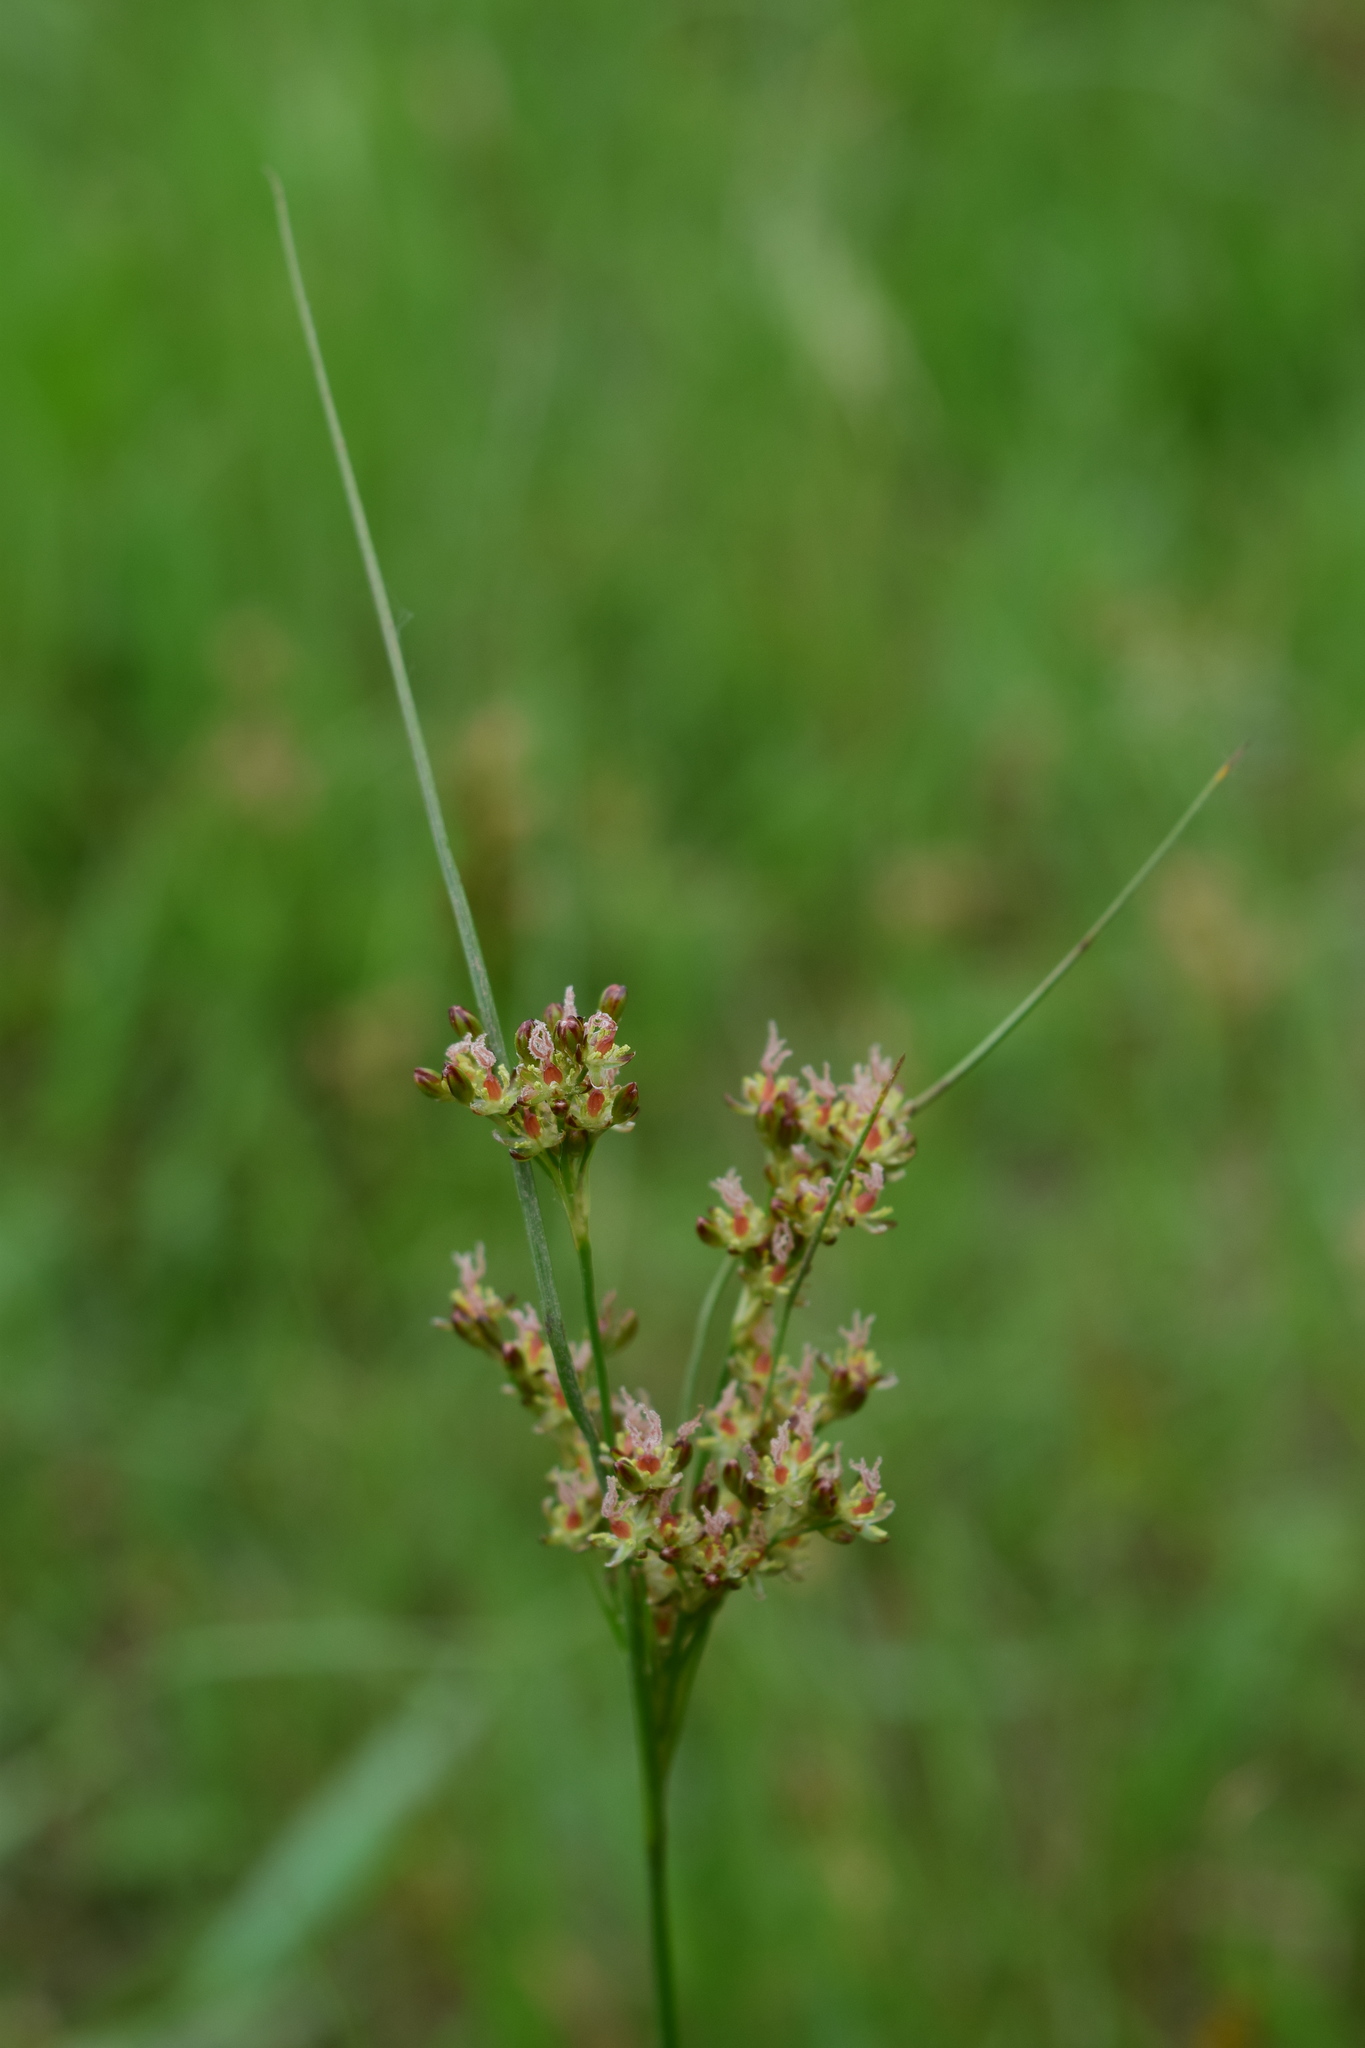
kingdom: Plantae
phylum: Tracheophyta
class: Liliopsida
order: Poales
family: Juncaceae
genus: Juncus
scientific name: Juncus compressus
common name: Round-fruited rush
